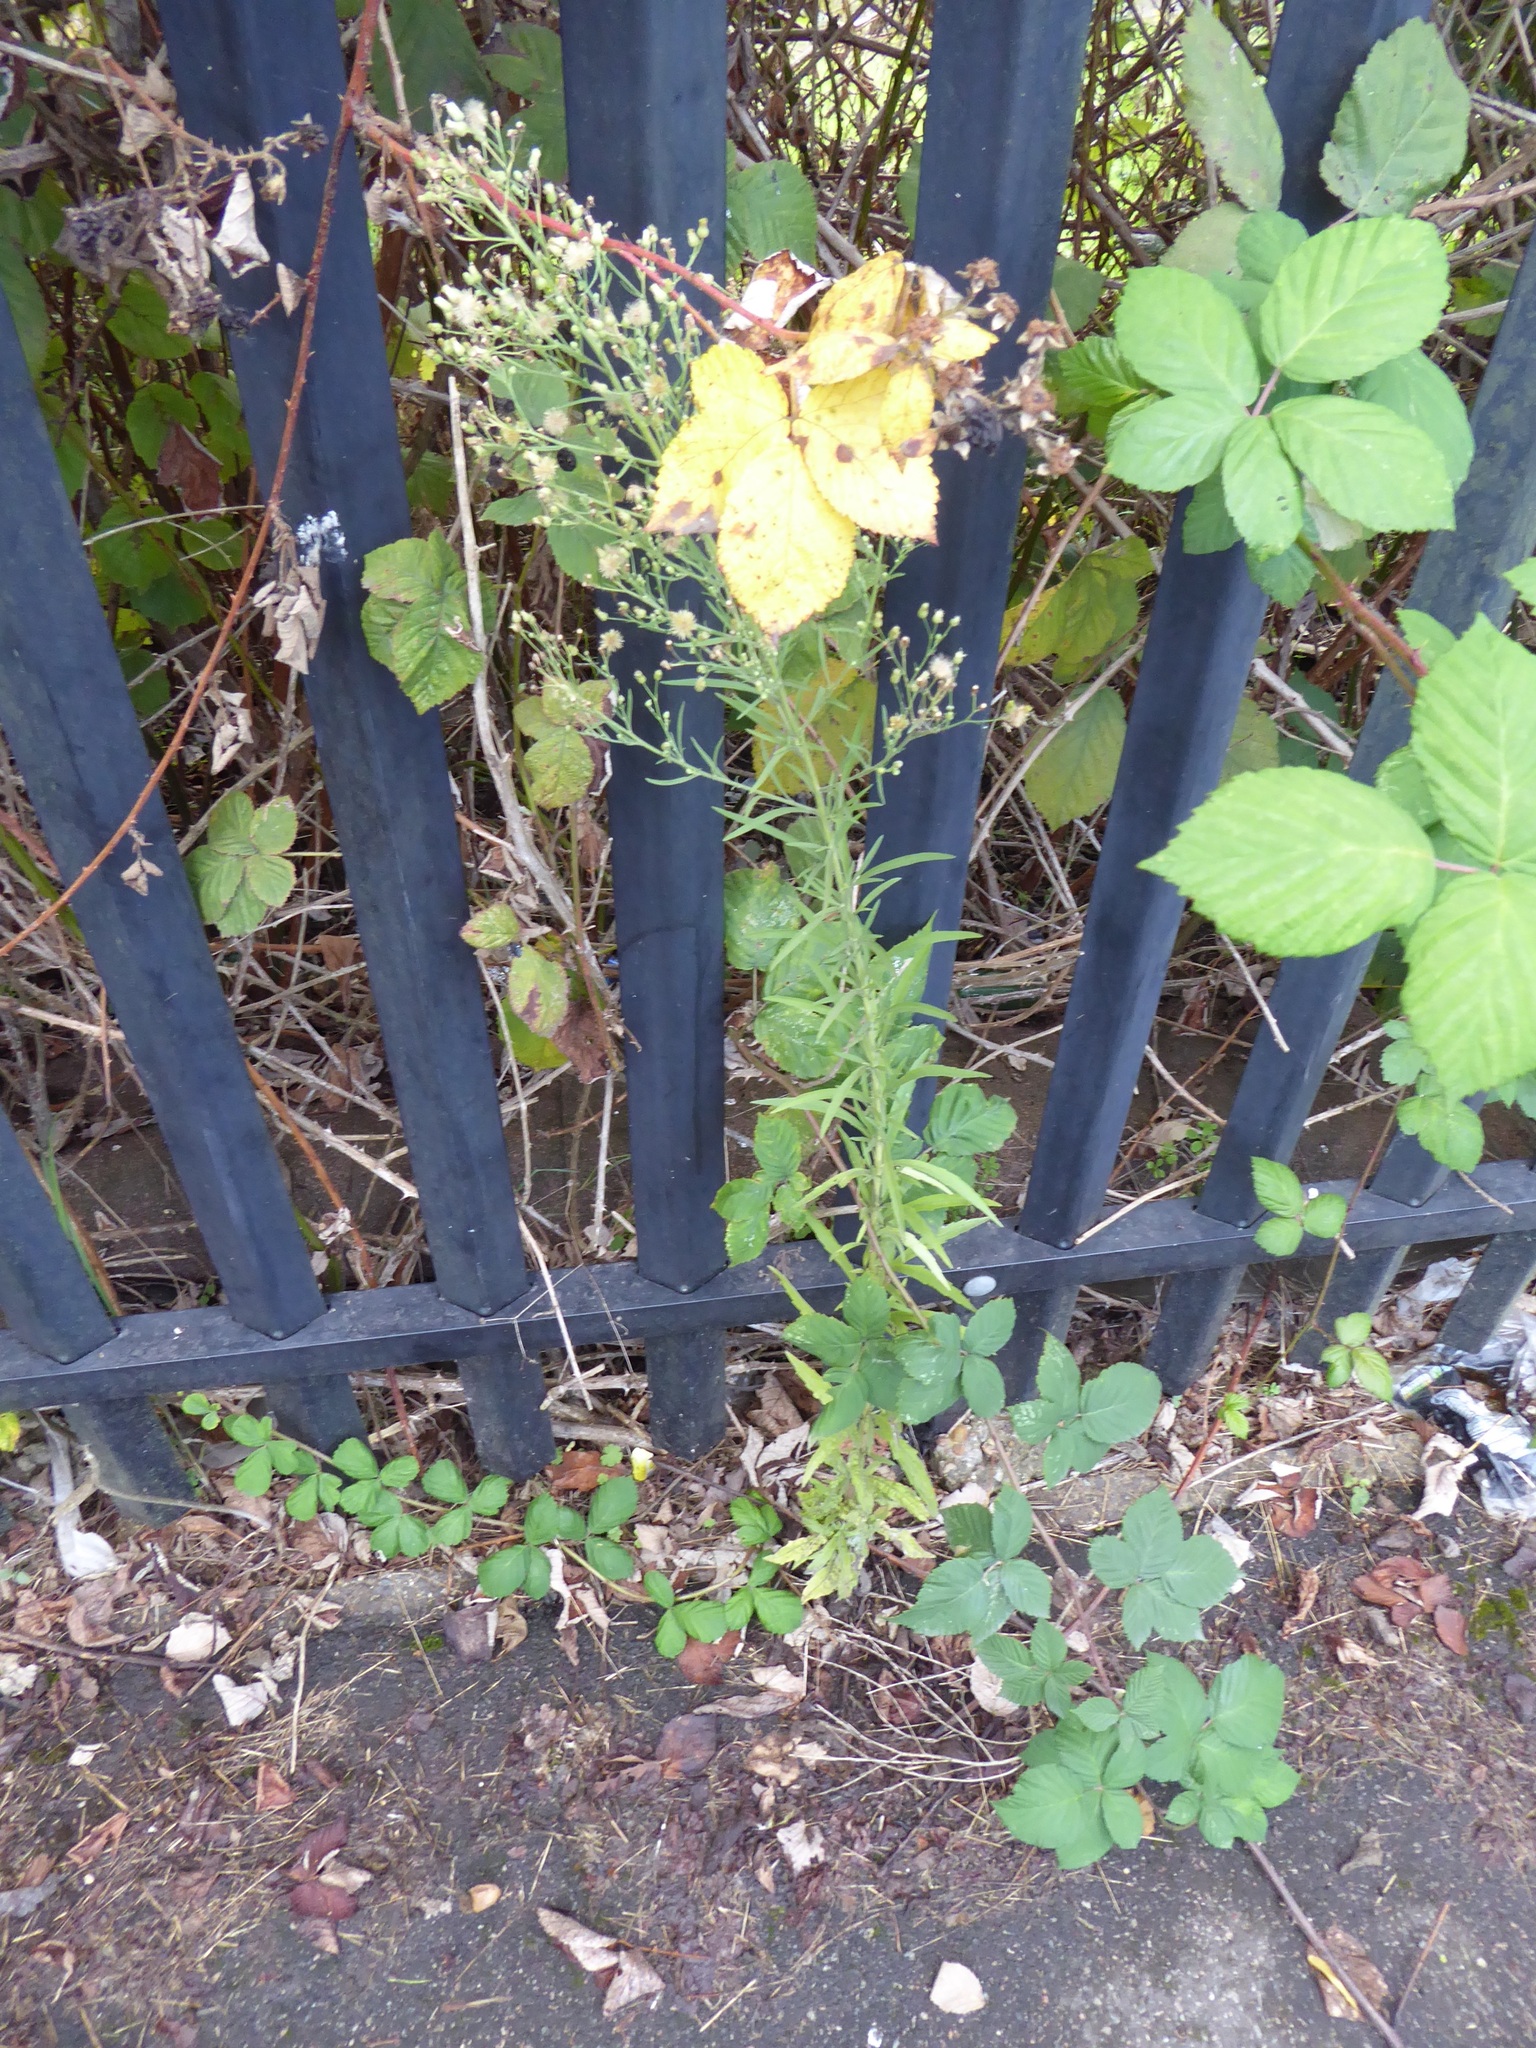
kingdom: Plantae
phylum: Tracheophyta
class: Magnoliopsida
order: Asterales
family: Asteraceae
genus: Erigeron
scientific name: Erigeron sumatrensis
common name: Daisy
